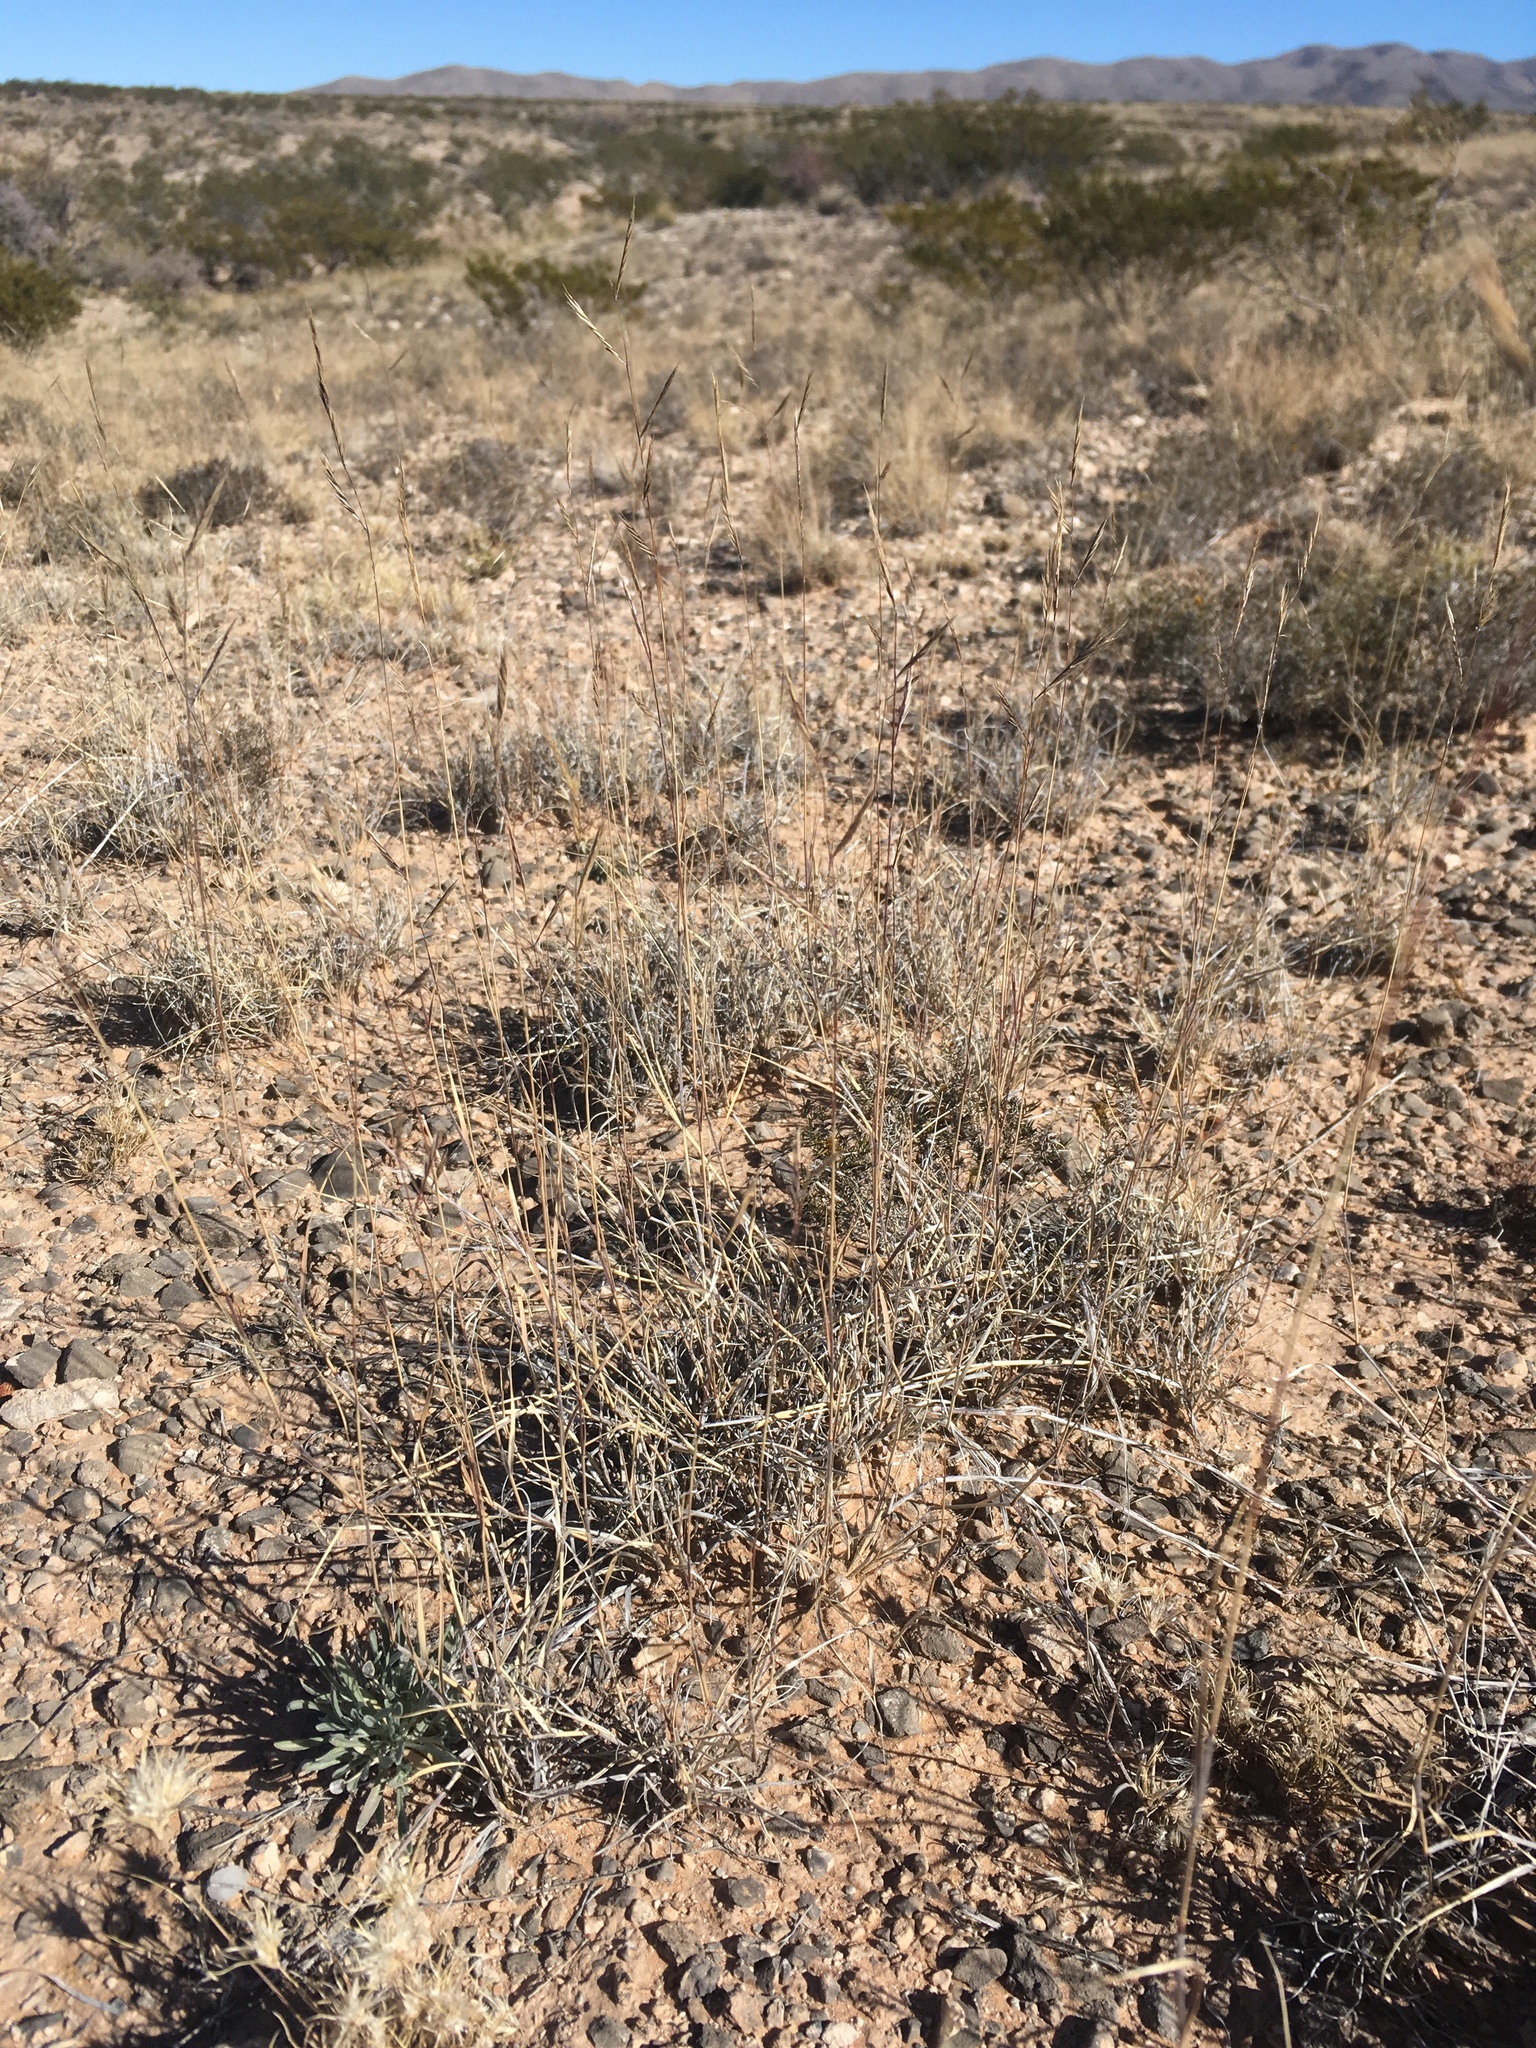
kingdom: Plantae
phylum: Tracheophyta
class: Liliopsida
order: Poales
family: Poaceae
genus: Bouteloua
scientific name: Bouteloua eriopoda
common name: Woolly foot grama
